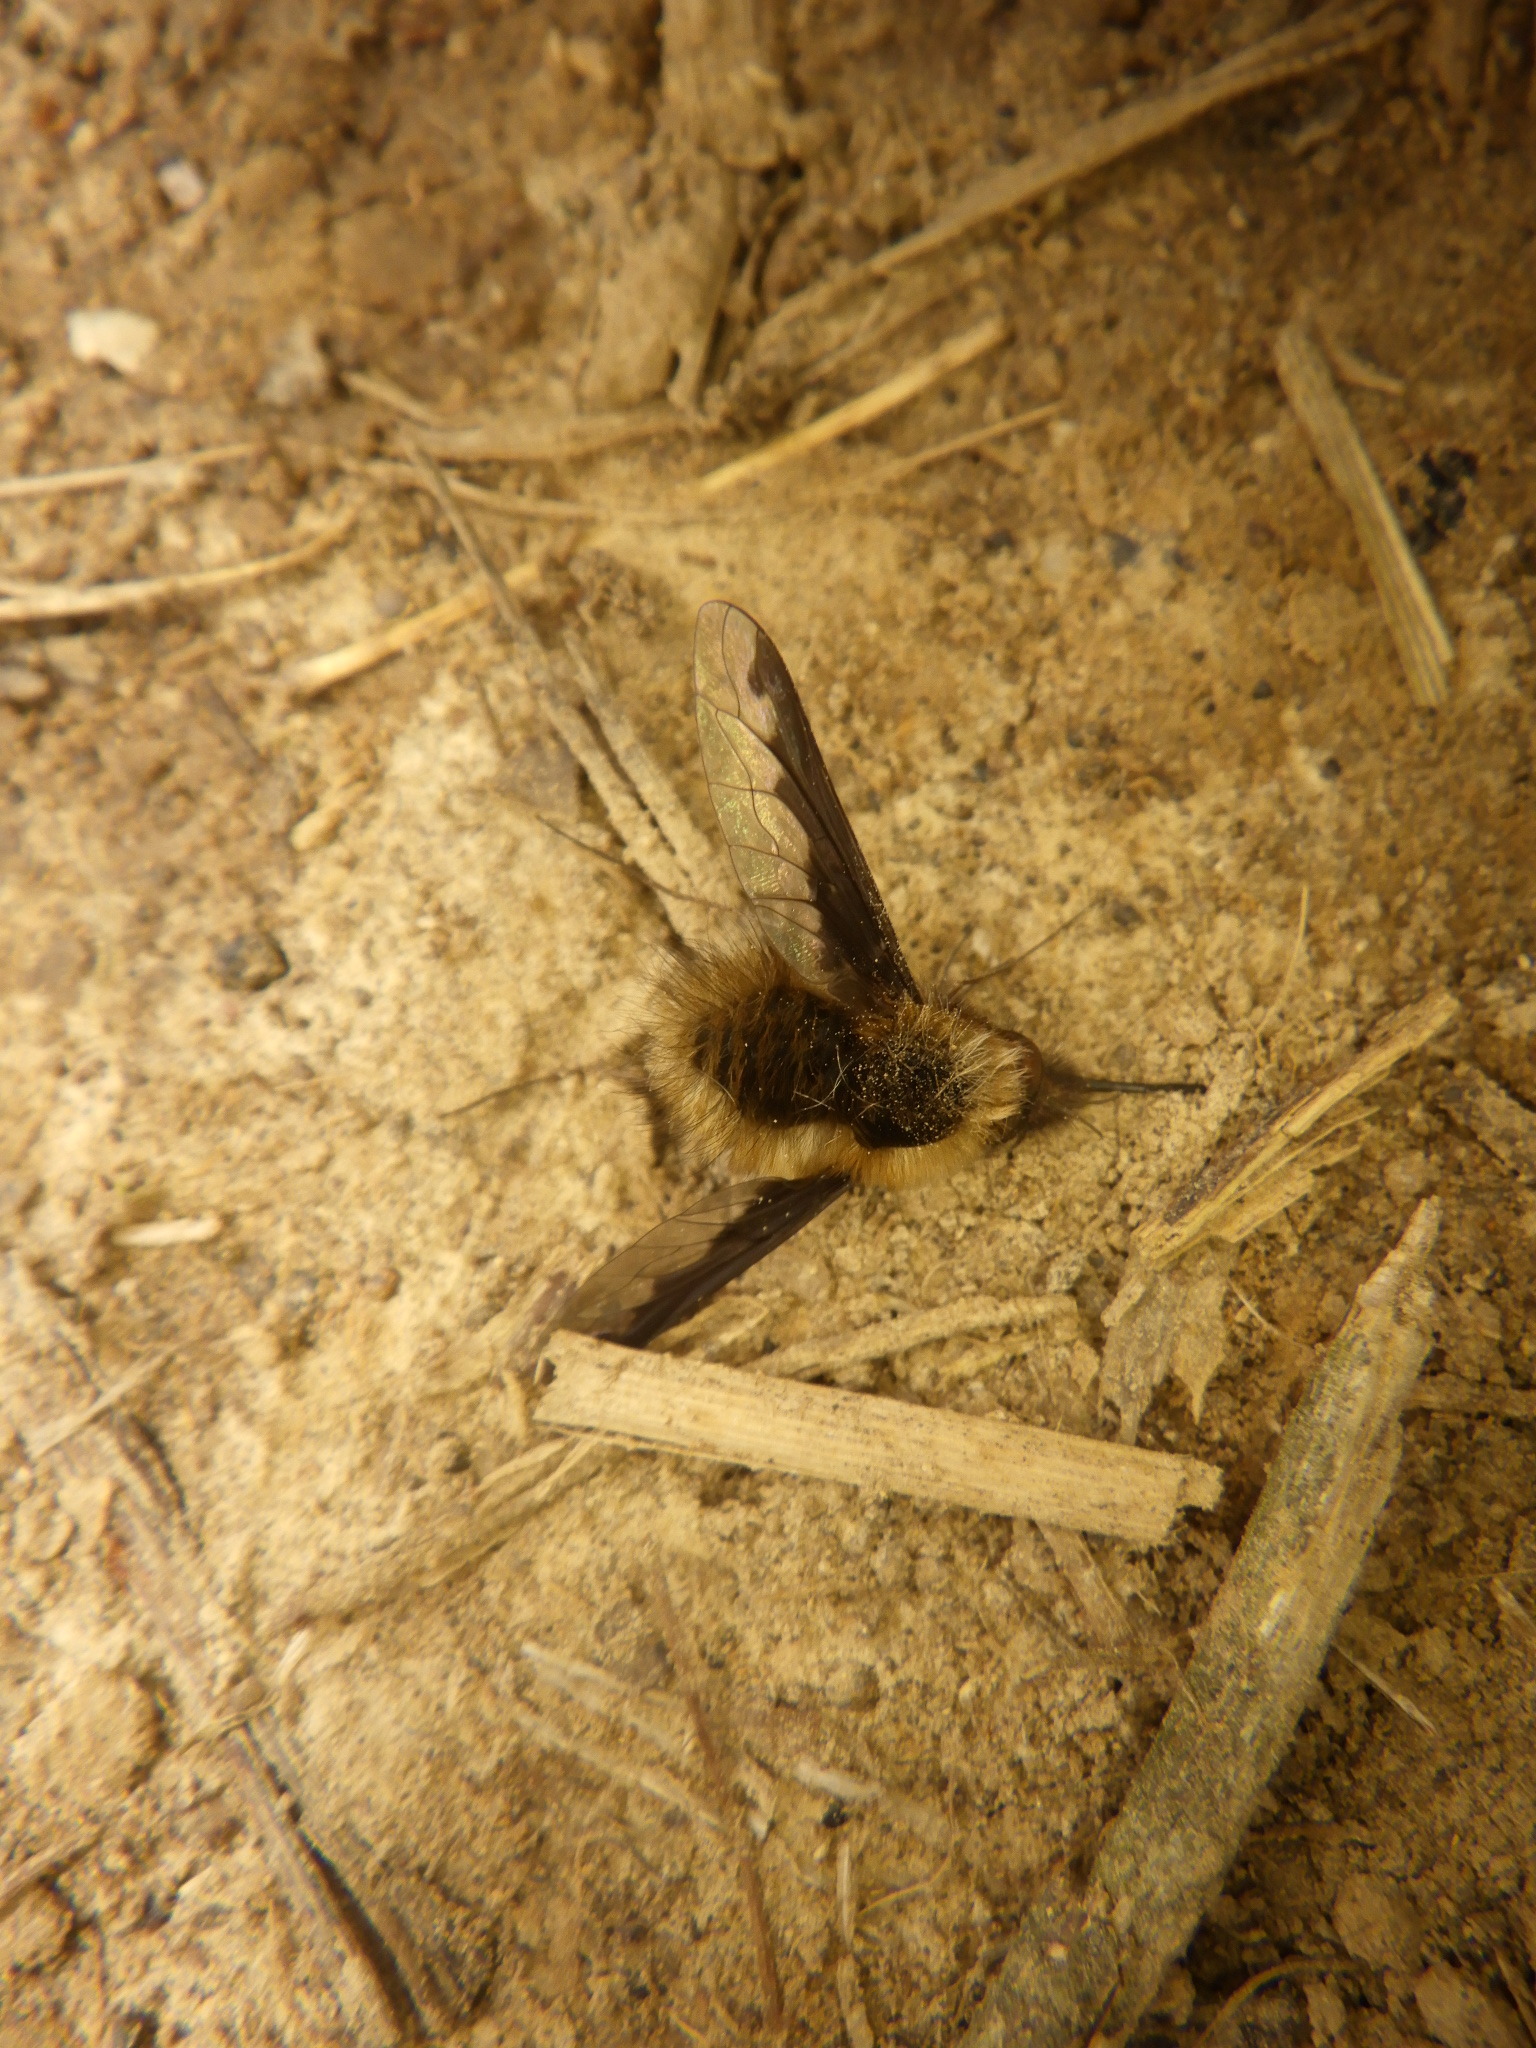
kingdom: Animalia
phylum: Arthropoda
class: Insecta
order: Diptera
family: Bombyliidae
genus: Bombylius
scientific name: Bombylius major
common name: Bee fly
